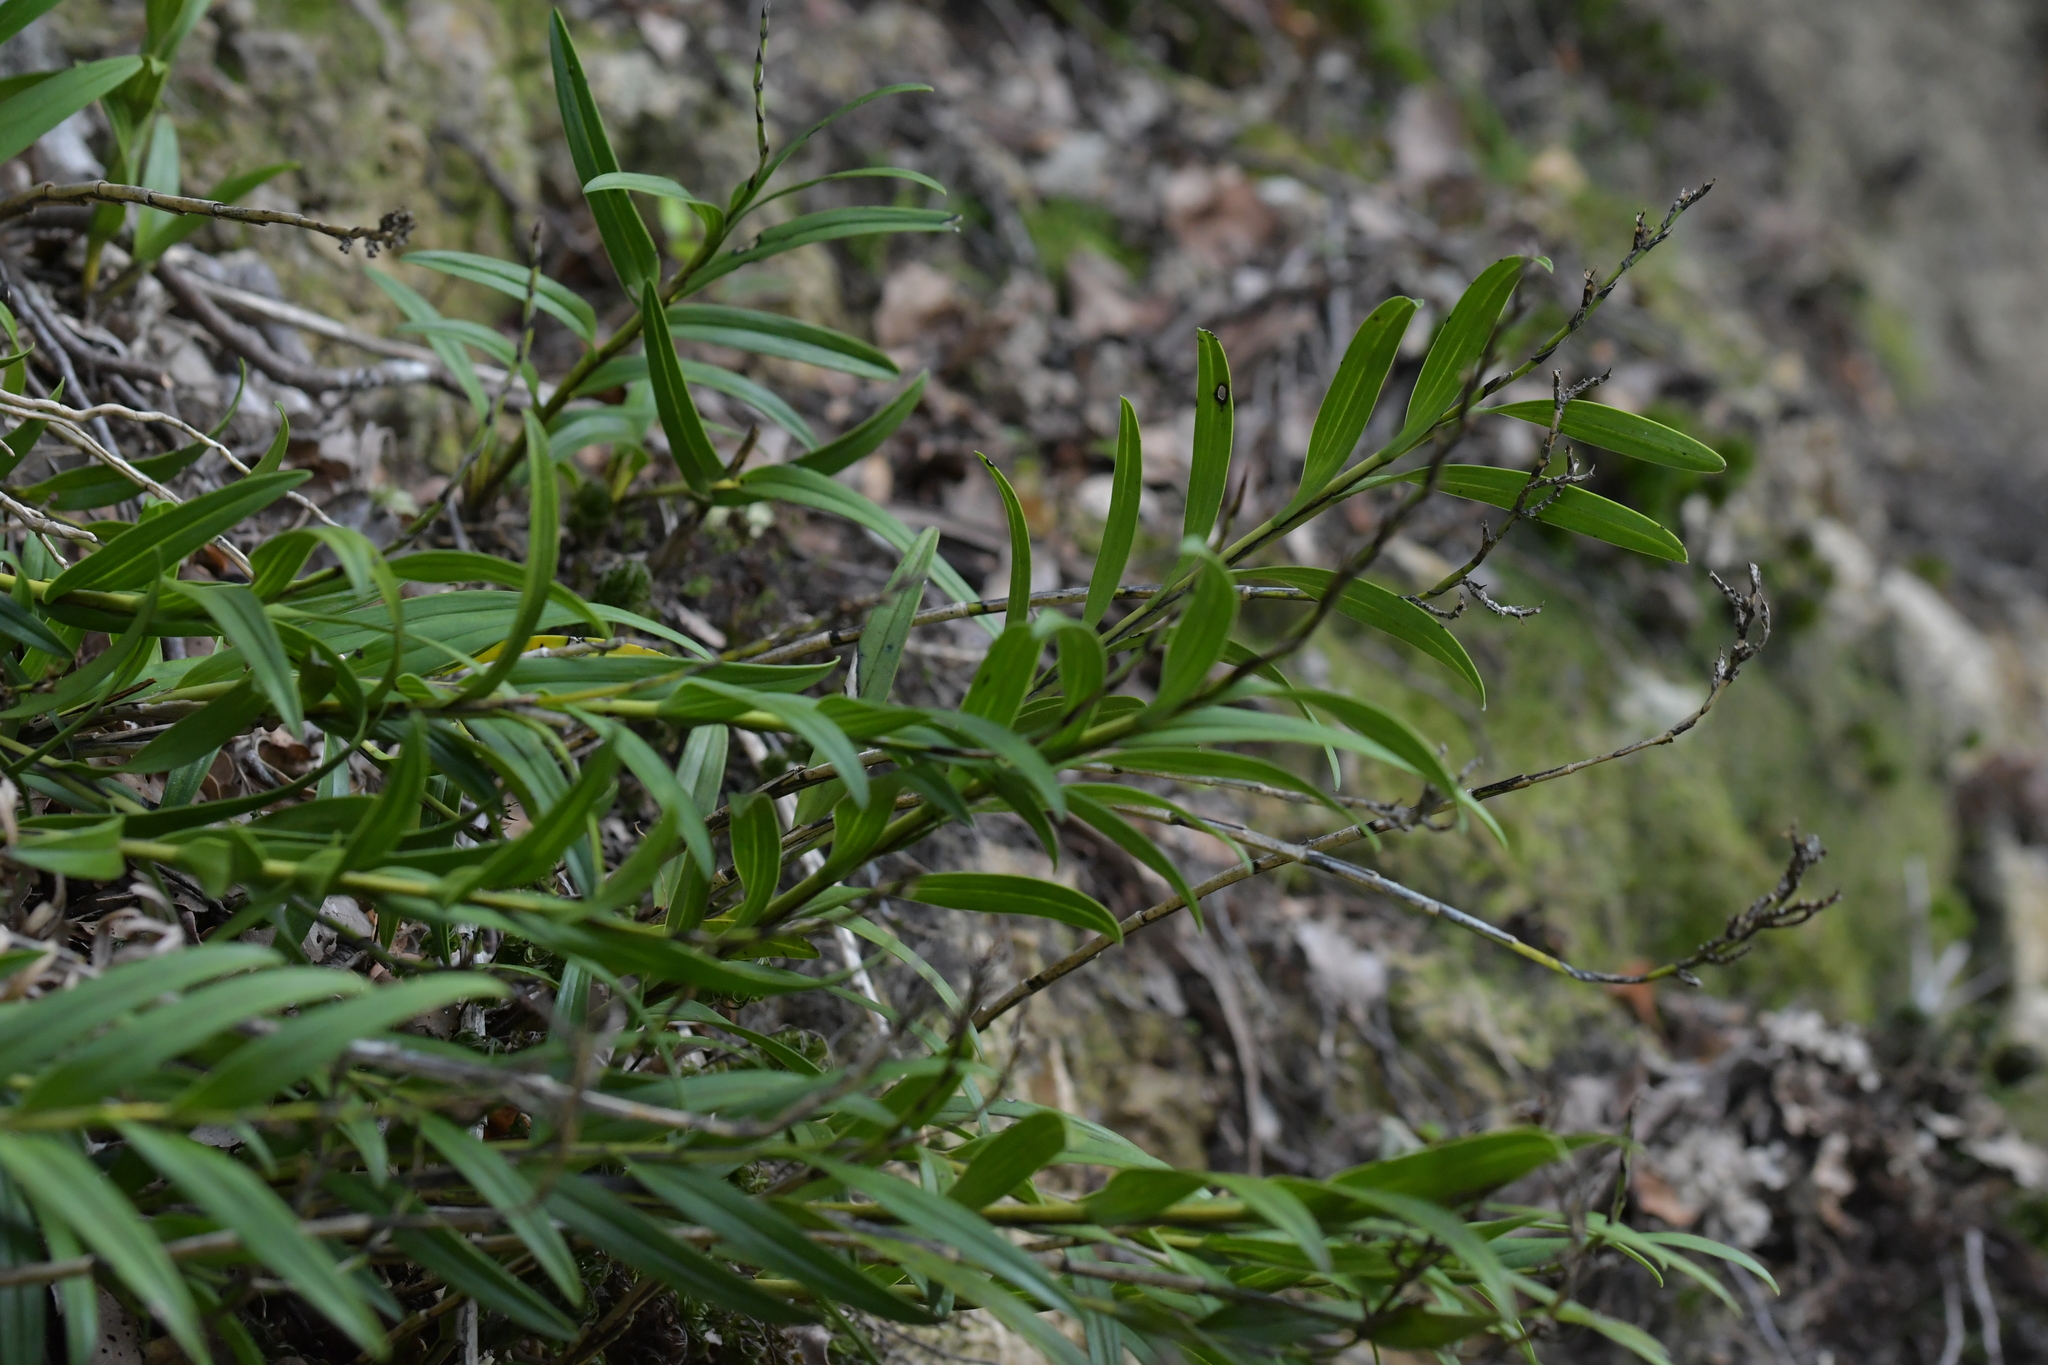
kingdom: Plantae
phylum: Tracheophyta
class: Liliopsida
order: Asparagales
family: Orchidaceae
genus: Earina
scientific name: Earina autumnalis
